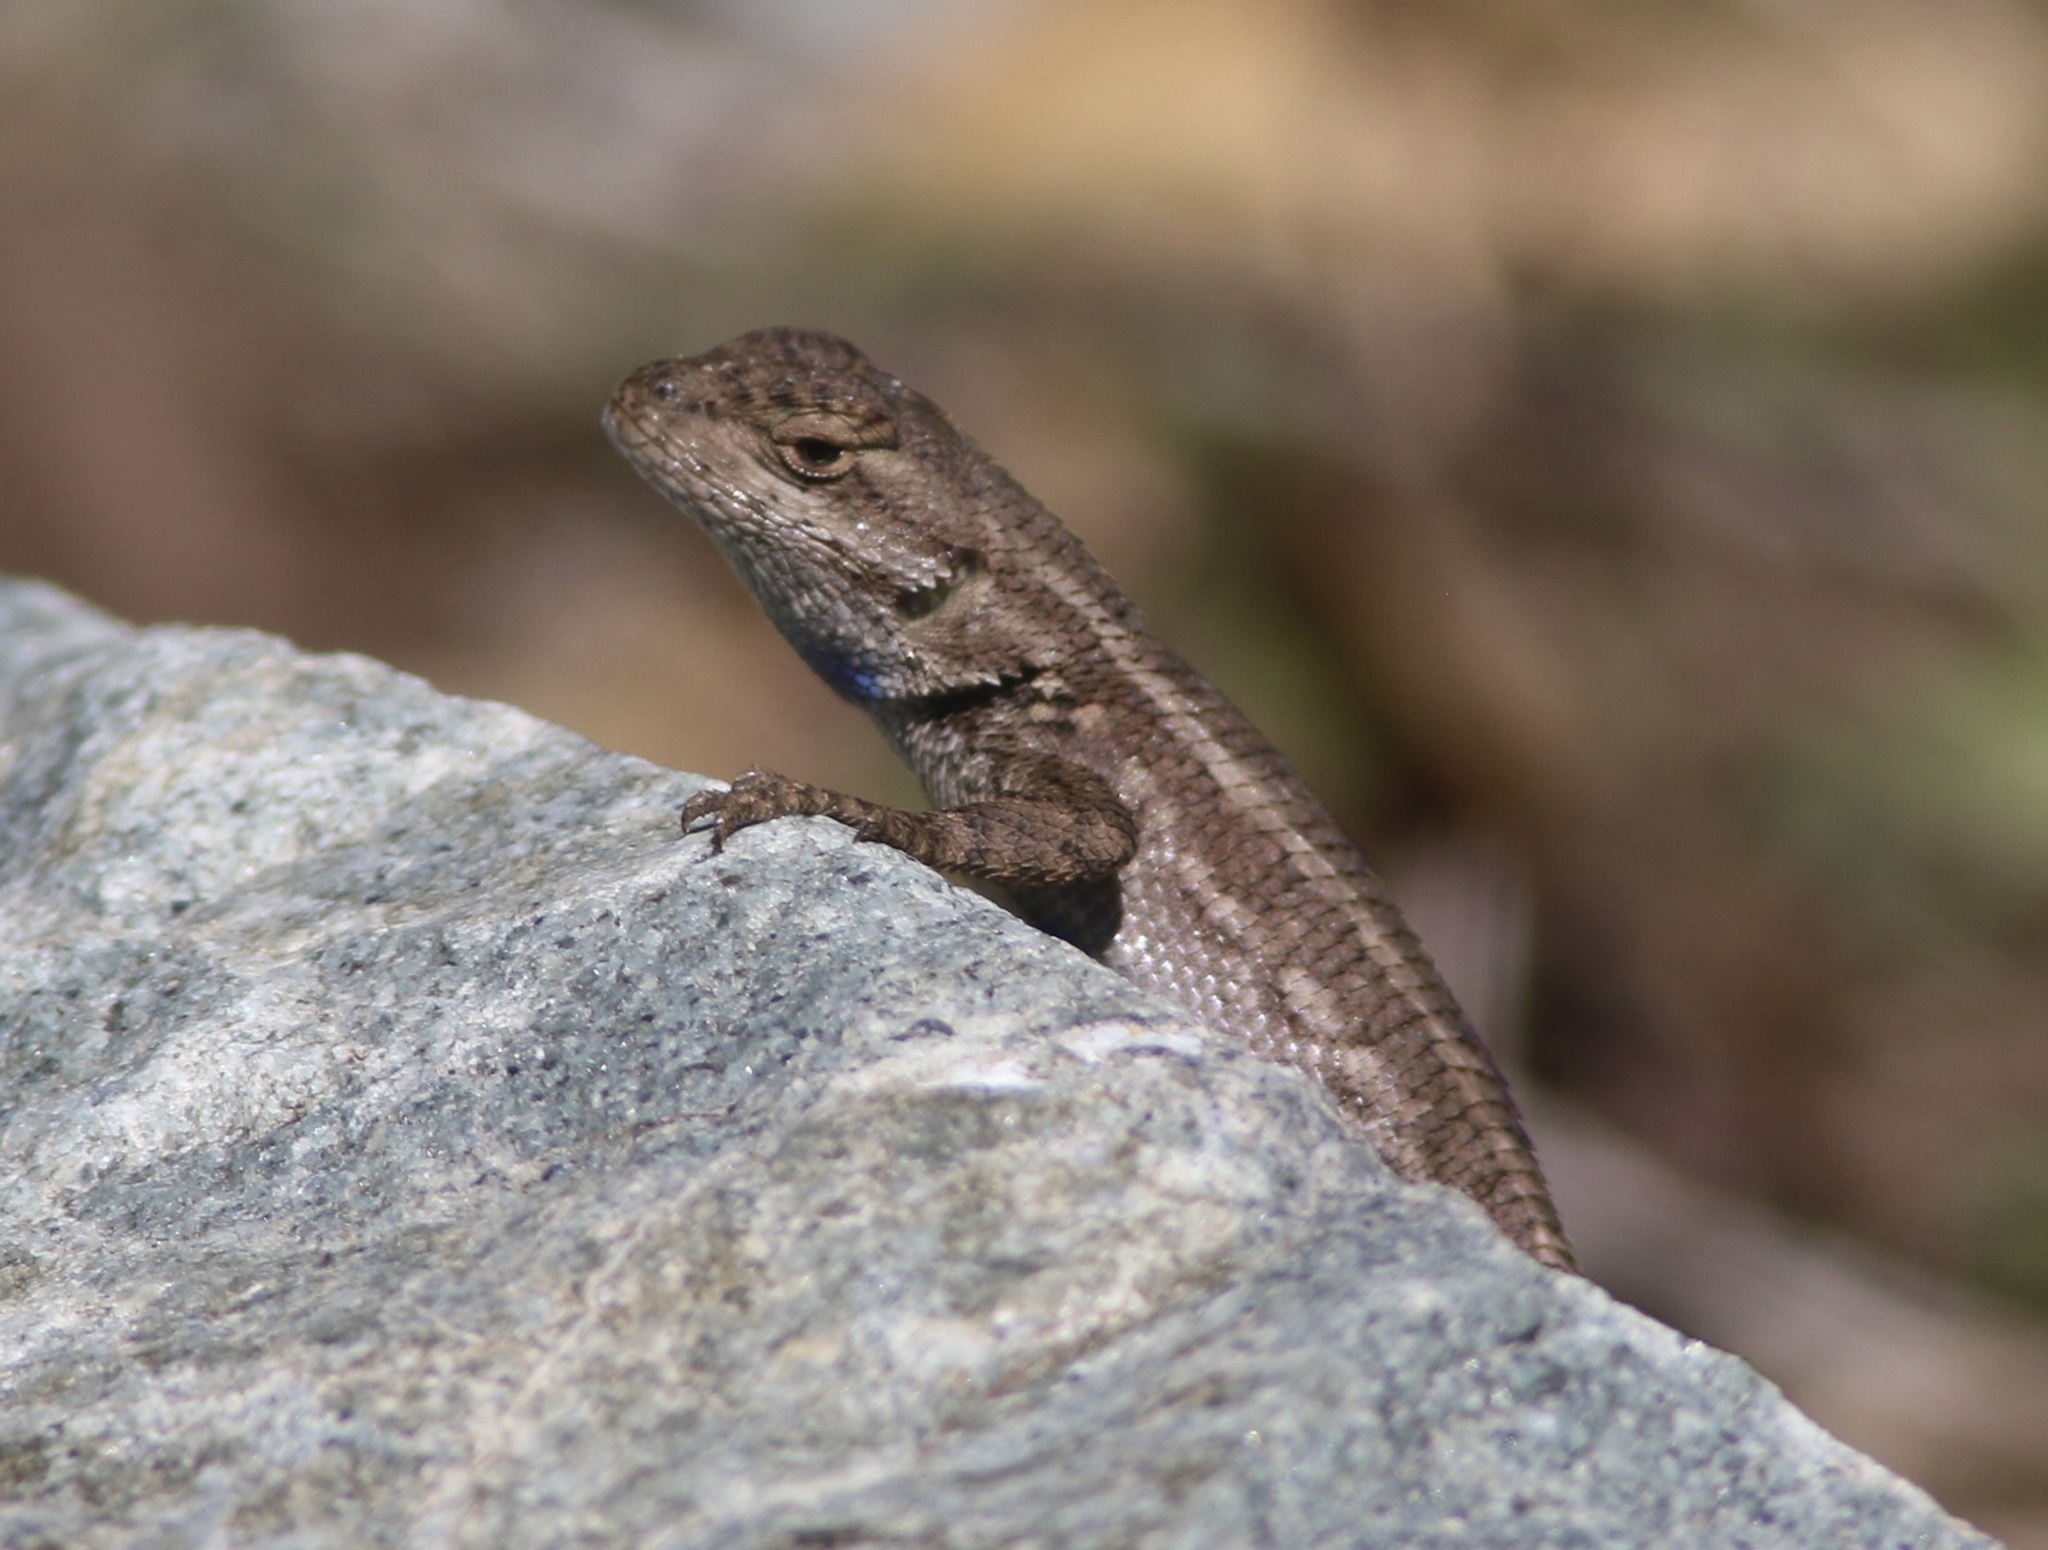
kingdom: Animalia
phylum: Chordata
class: Squamata
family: Phrynosomatidae
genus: Sceloporus
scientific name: Sceloporus occidentalis
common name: Western fence lizard
